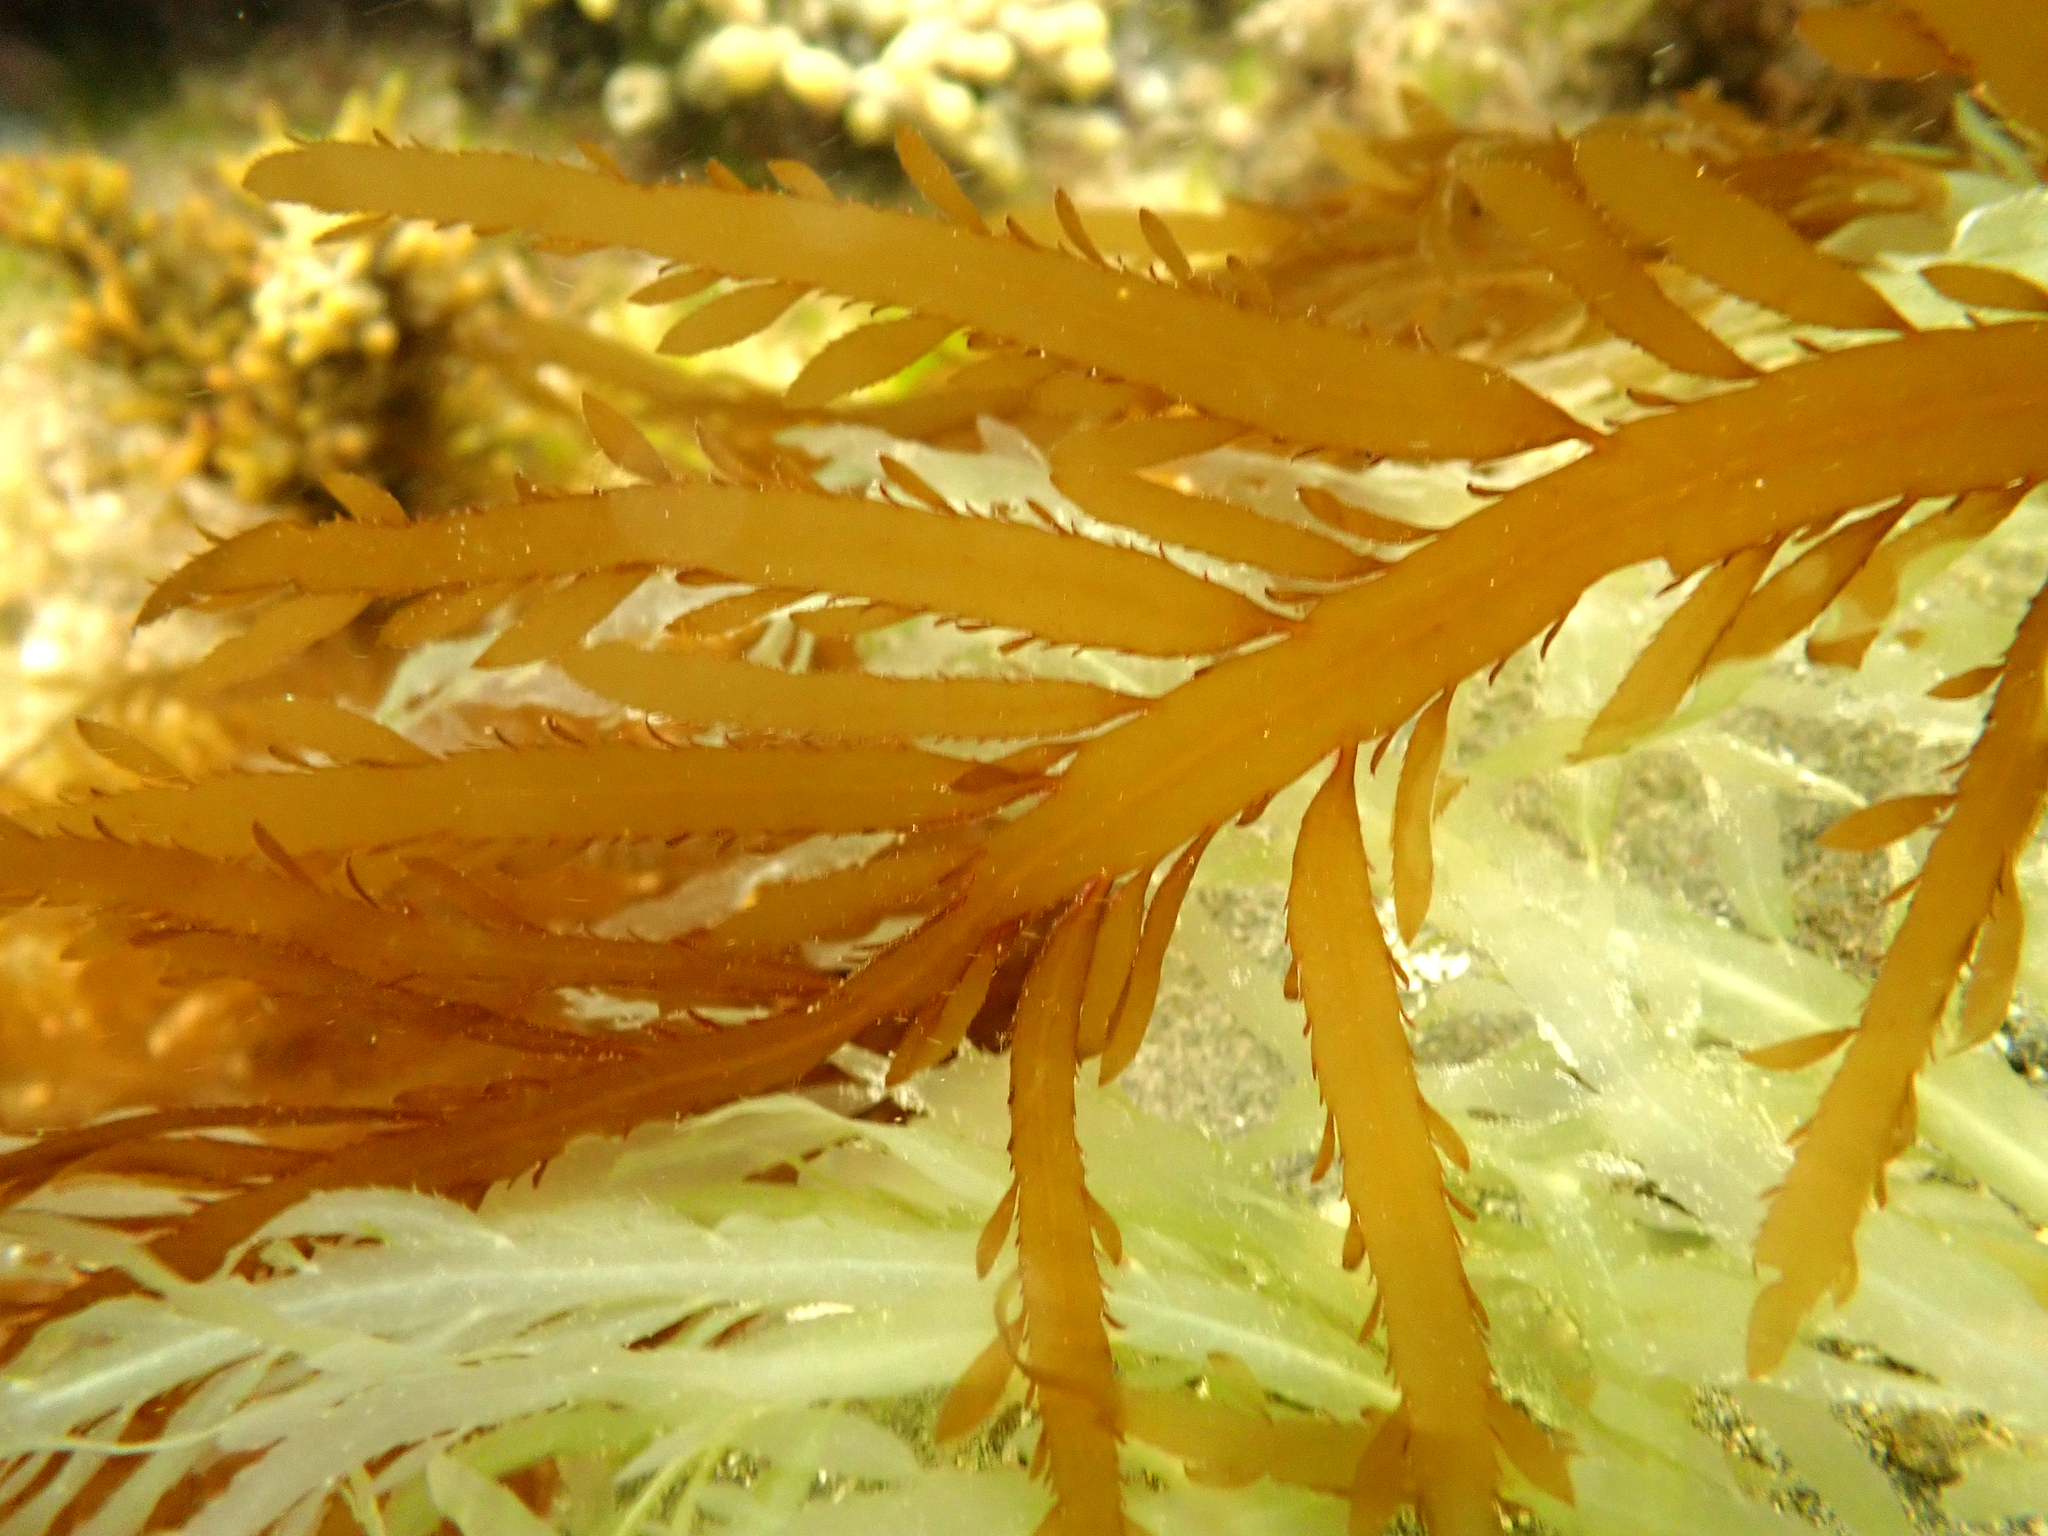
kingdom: Chromista
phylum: Ochrophyta
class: Phaeophyceae
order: Desmarestiales
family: Desmarestiaceae
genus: Desmarestia
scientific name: Desmarestia ligulata
